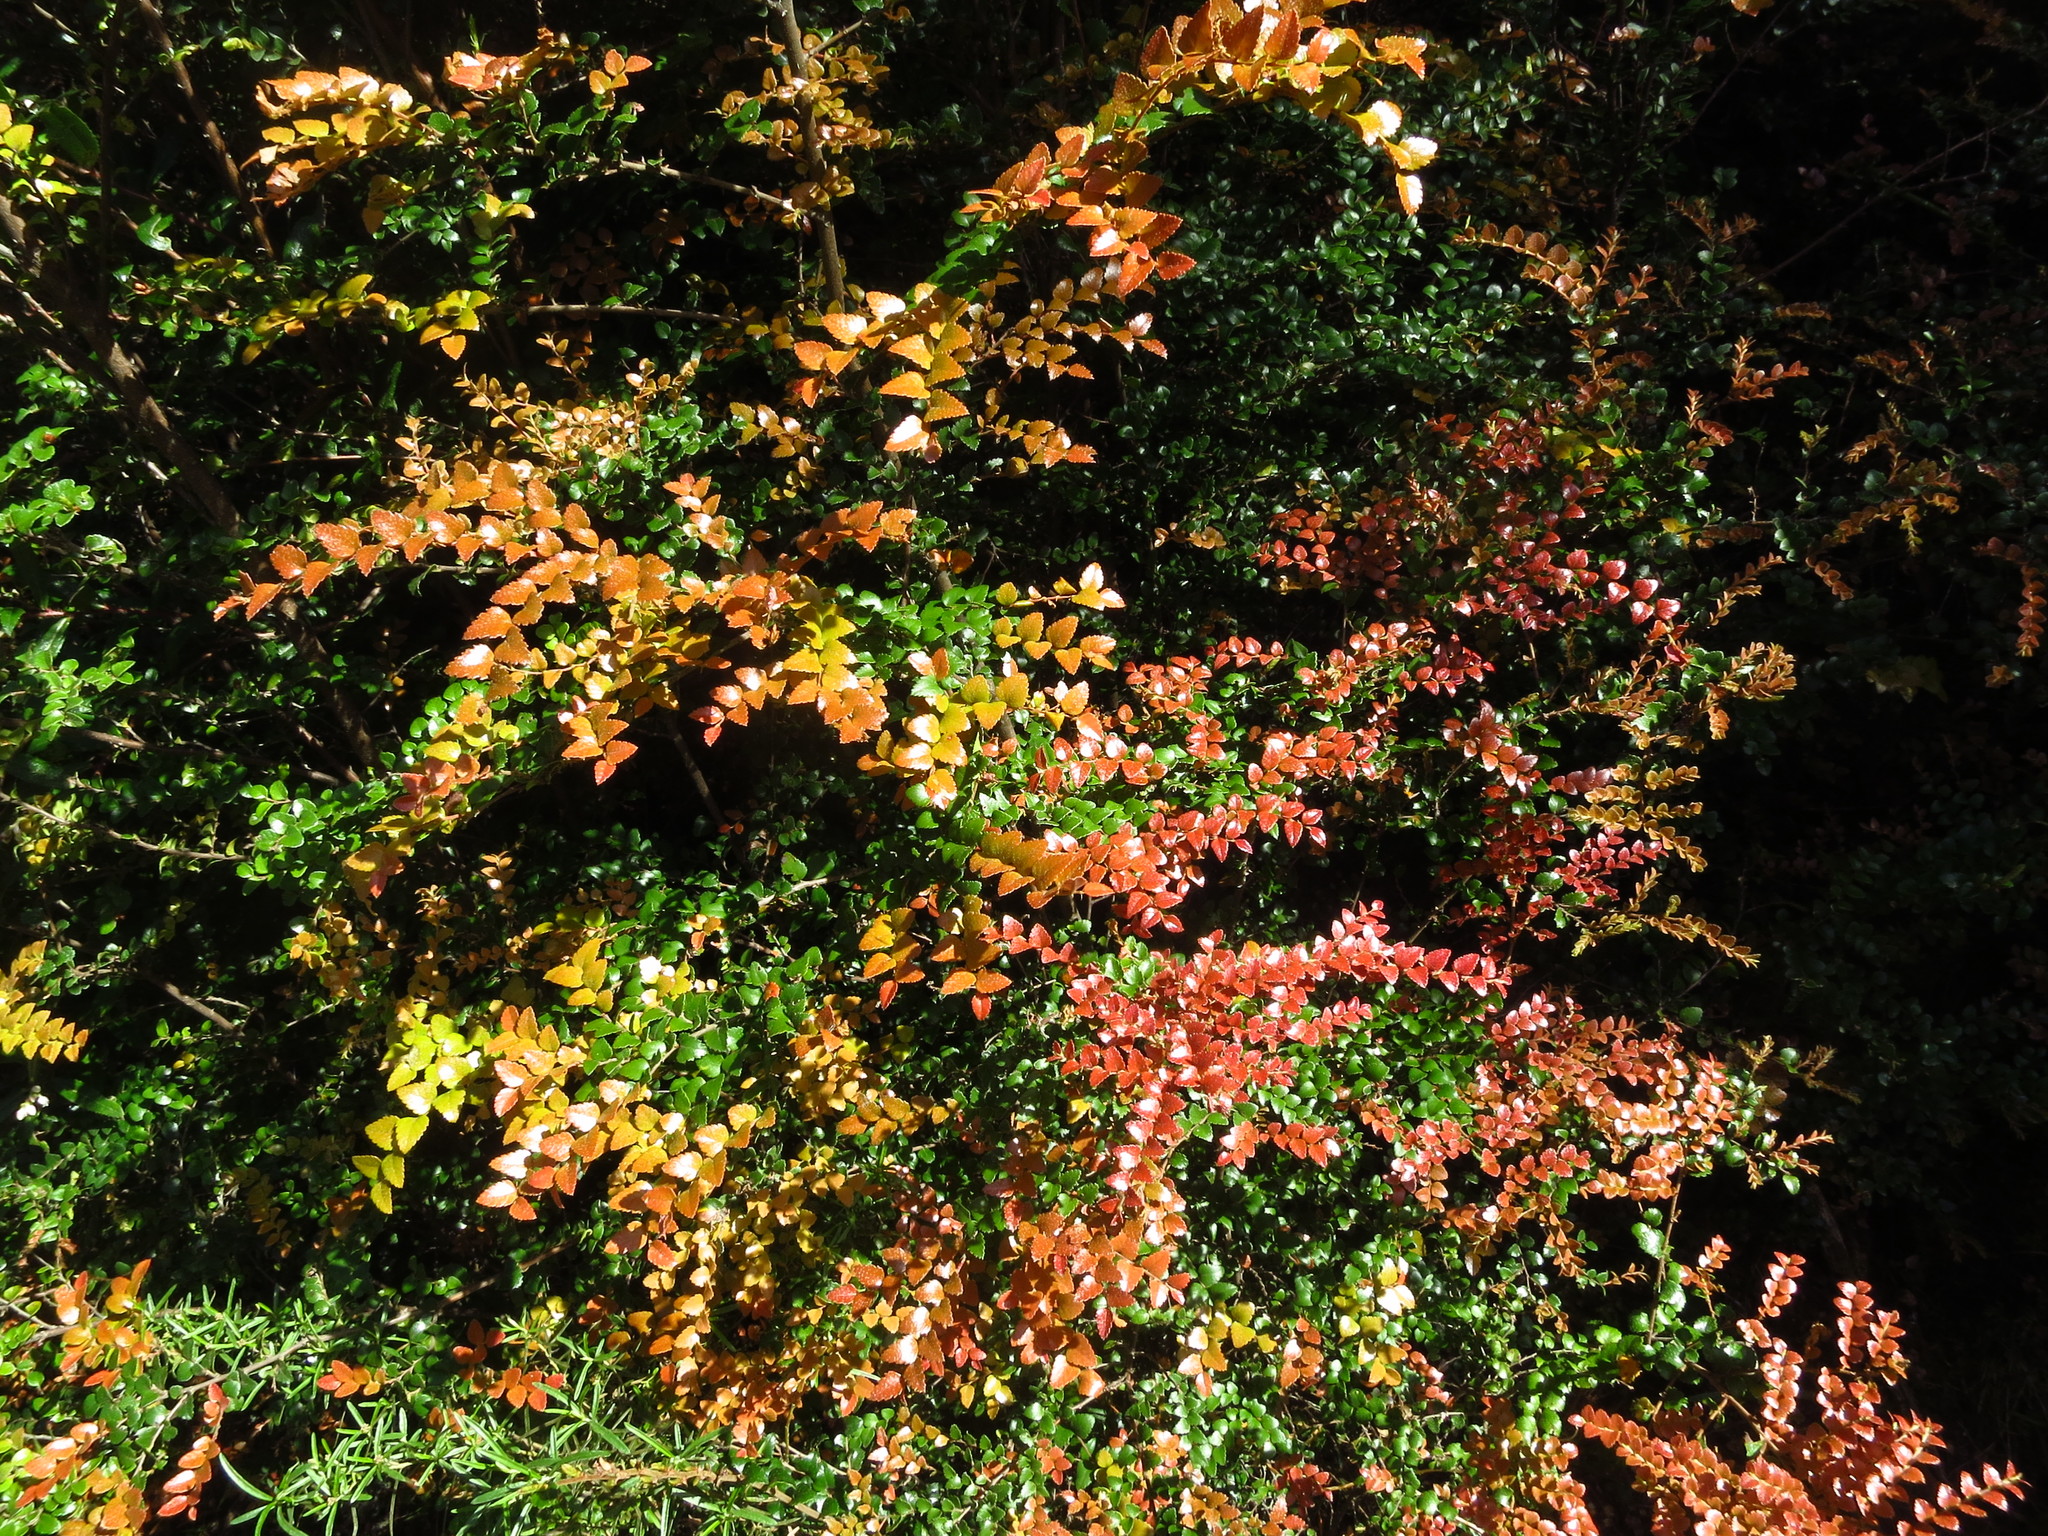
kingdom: Plantae
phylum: Tracheophyta
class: Magnoliopsida
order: Fagales
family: Nothofagaceae
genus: Nothofagus
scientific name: Nothofagus cunninghamii
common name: Myrtle beech
